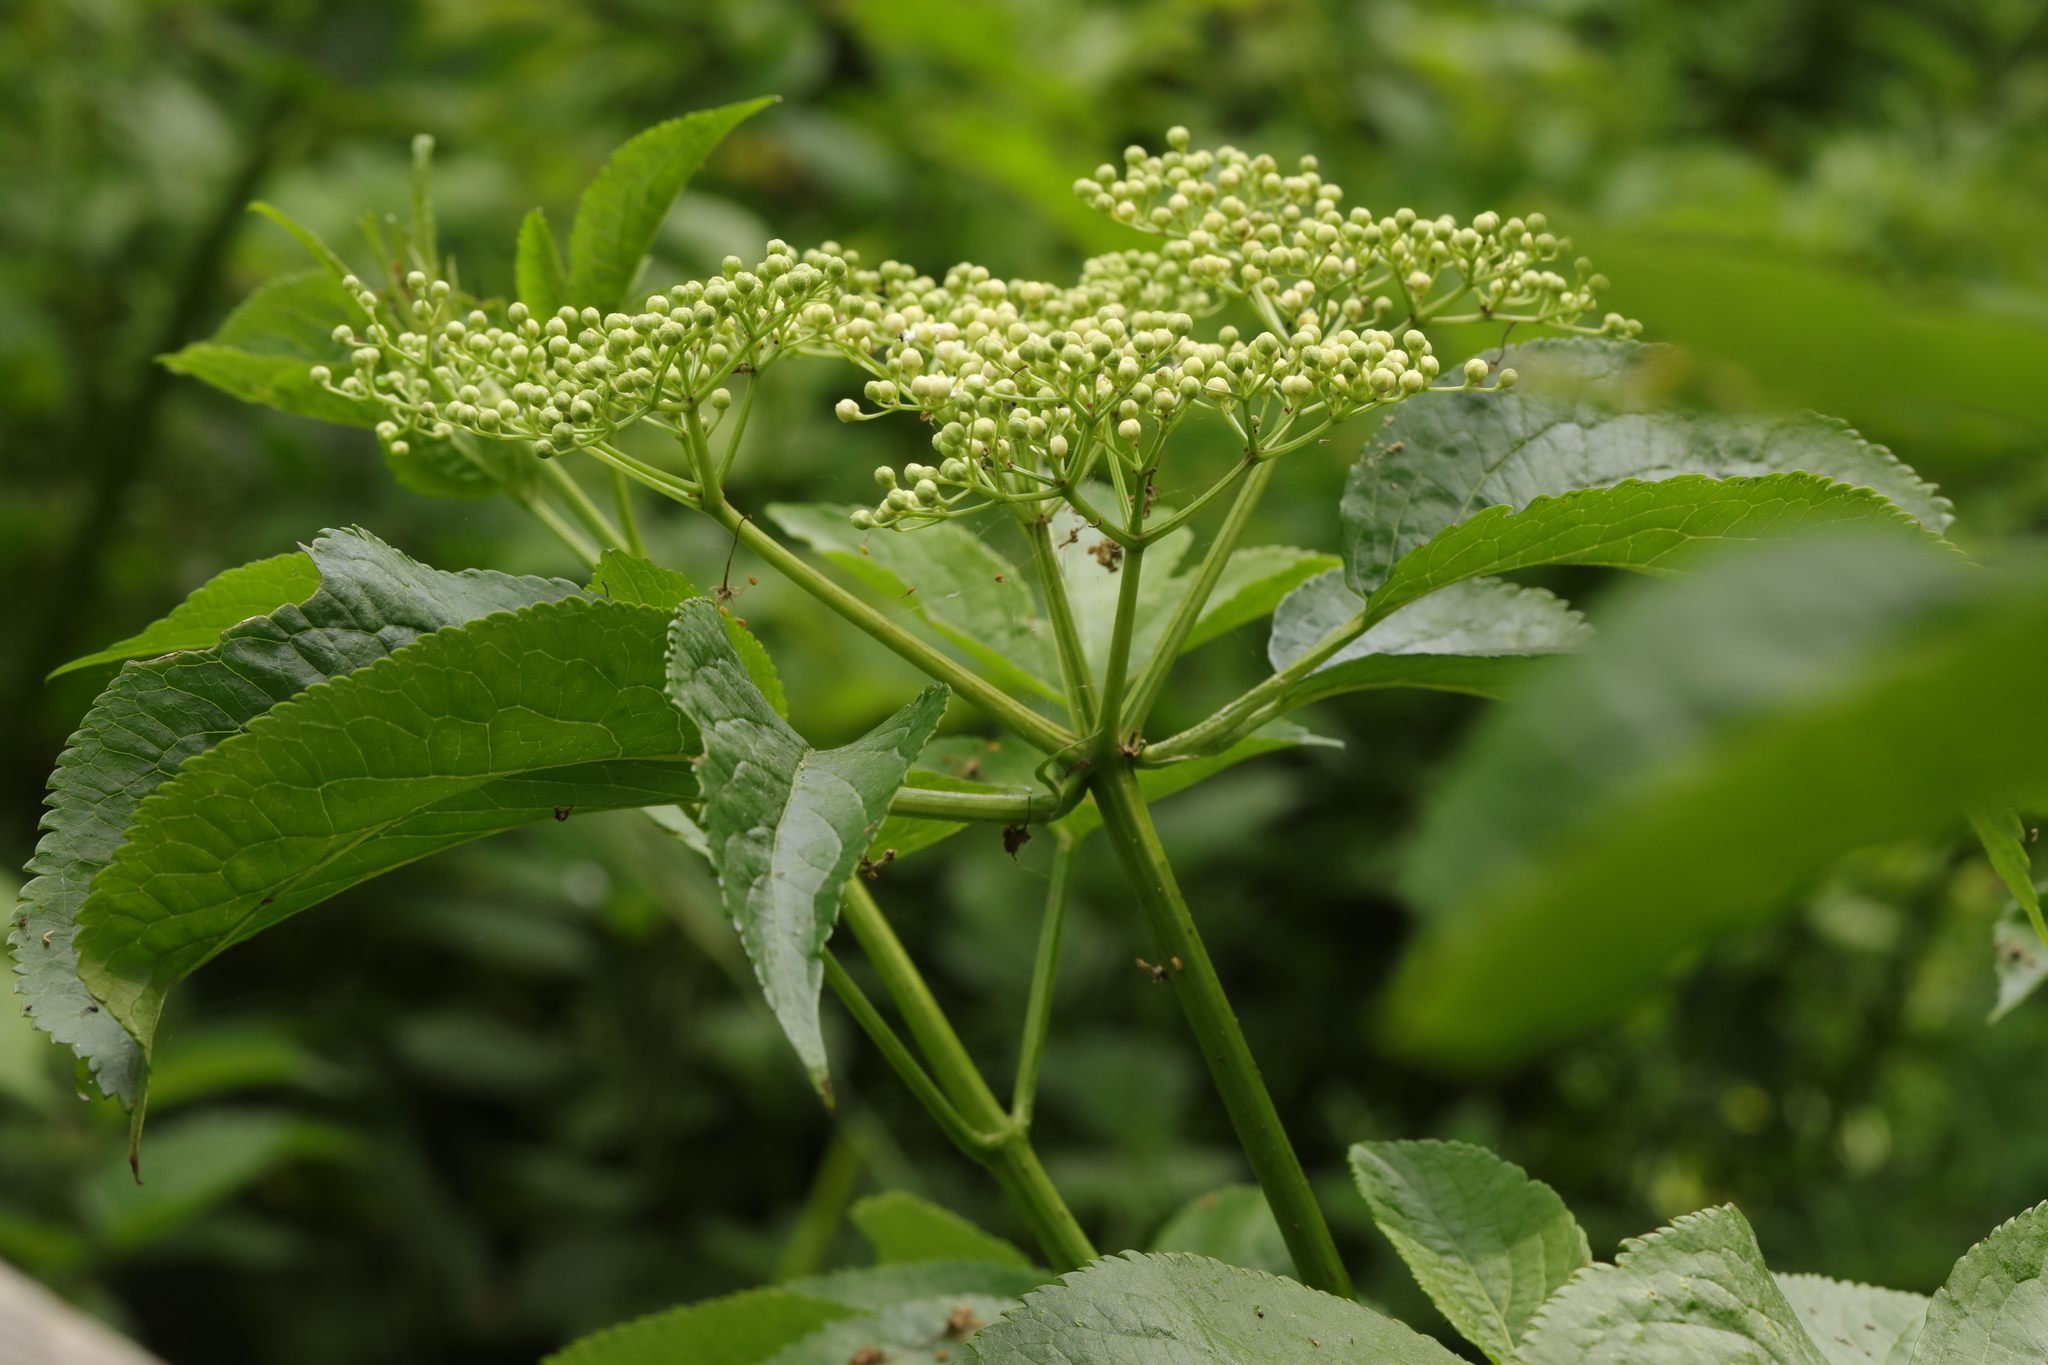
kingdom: Plantae
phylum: Tracheophyta
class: Magnoliopsida
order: Dipsacales
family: Viburnaceae
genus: Sambucus
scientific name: Sambucus nigra
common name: Elder
